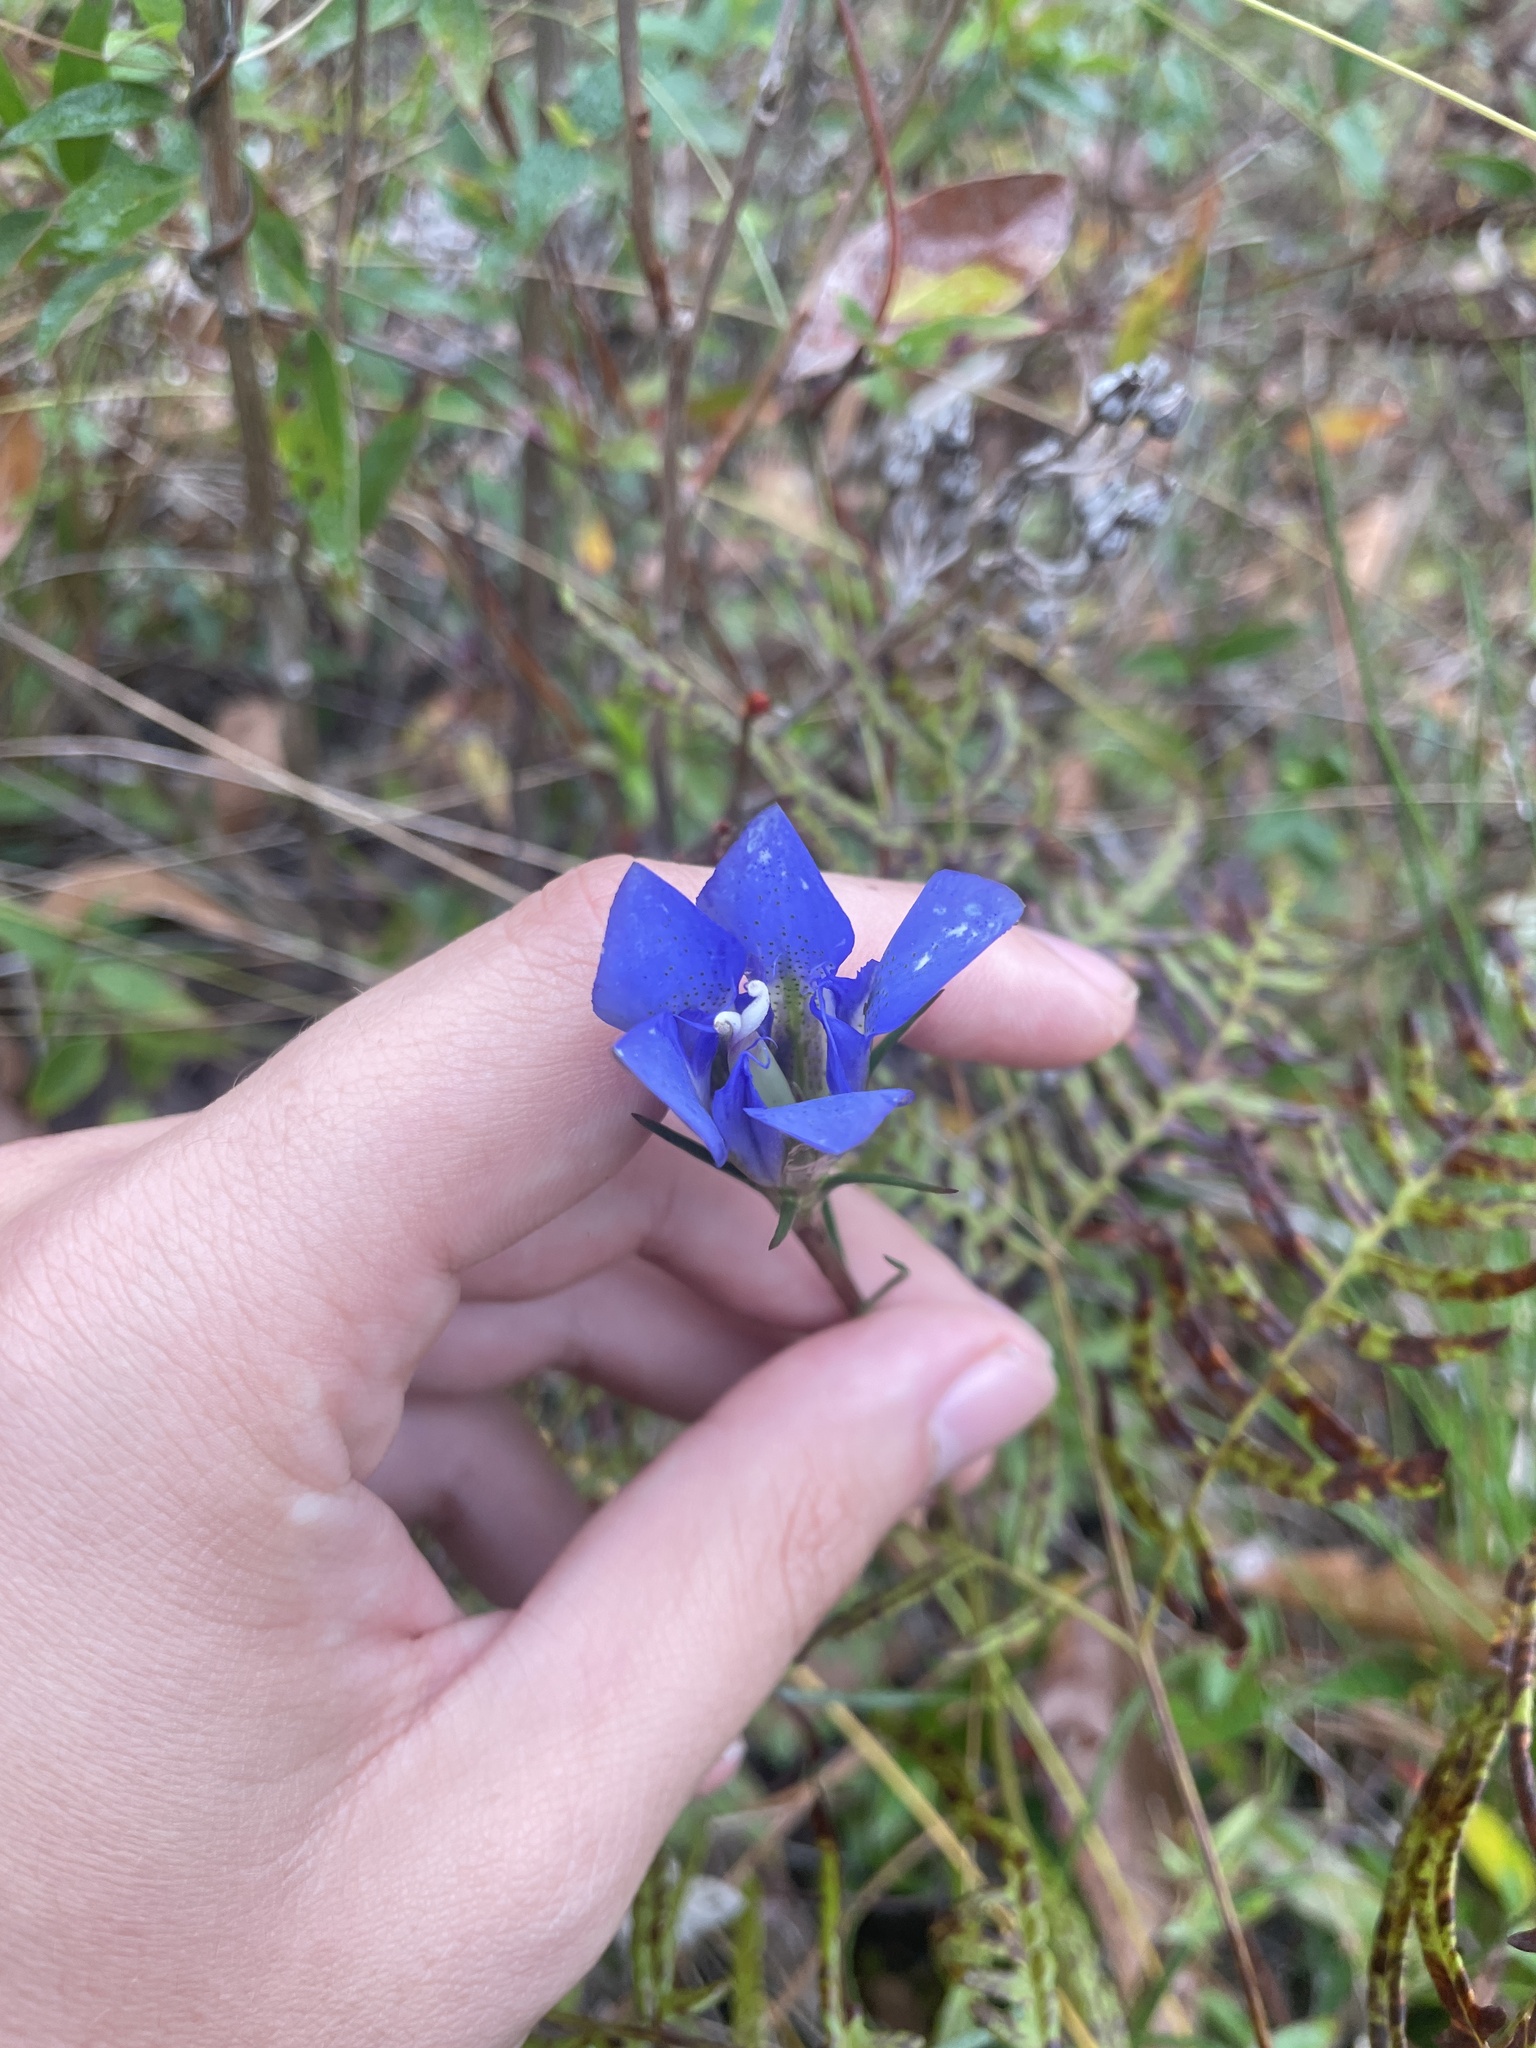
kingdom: Plantae
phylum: Tracheophyta
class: Magnoliopsida
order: Gentianales
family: Gentianaceae
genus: Gentiana
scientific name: Gentiana autumnalis
